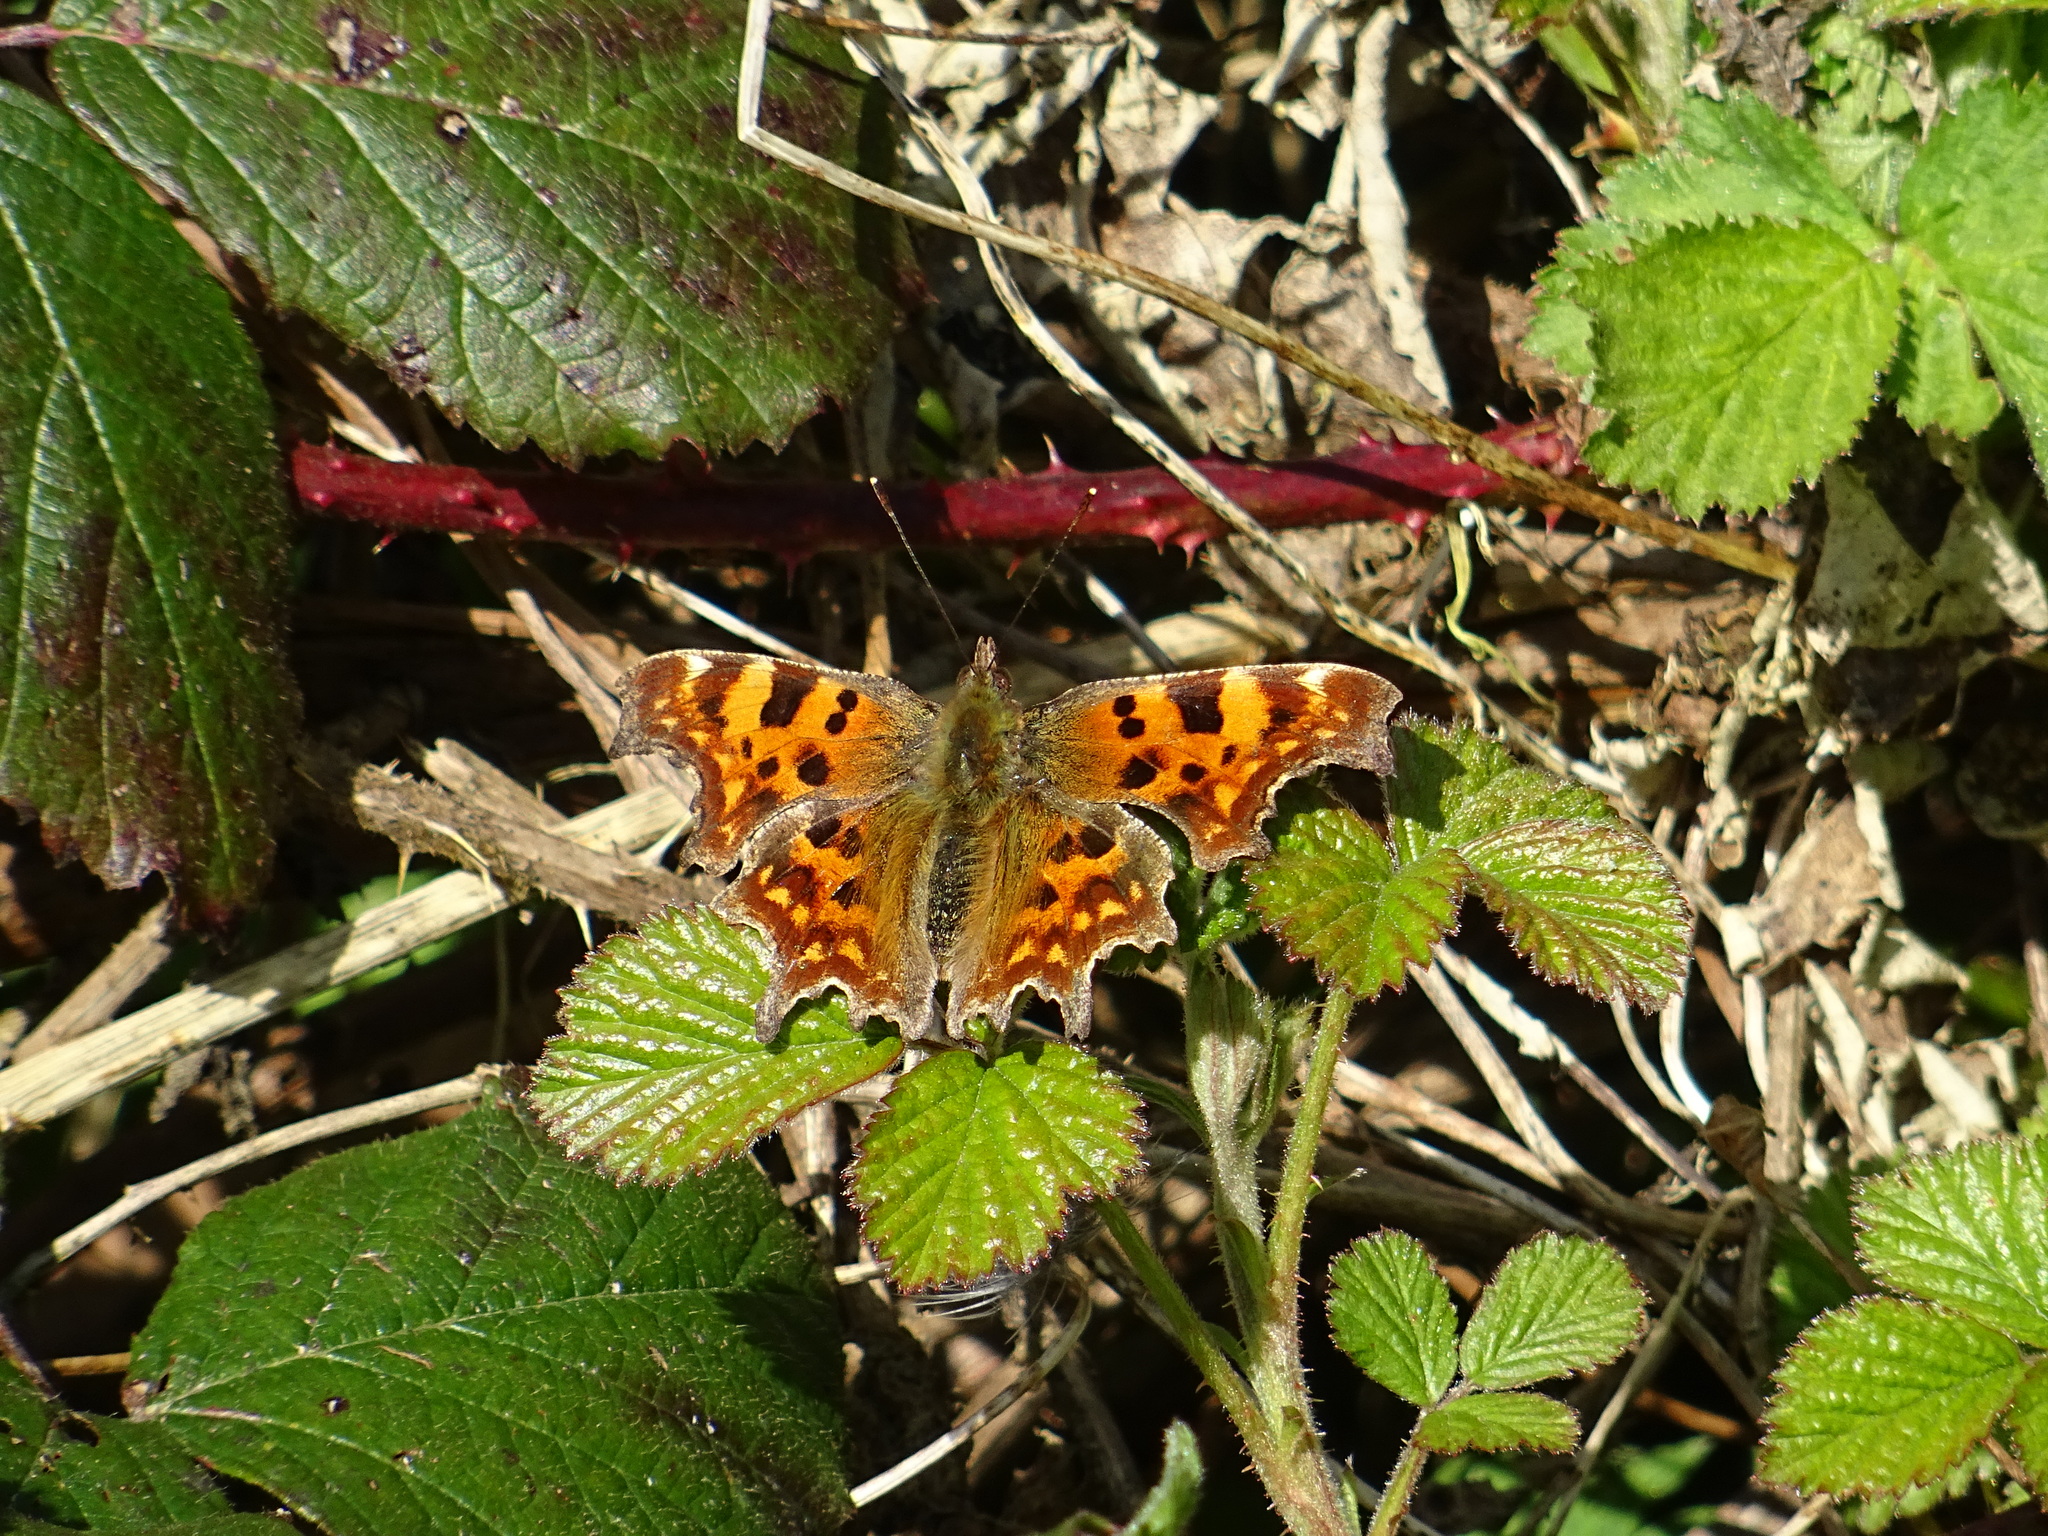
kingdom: Animalia
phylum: Arthropoda
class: Insecta
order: Lepidoptera
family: Nymphalidae
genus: Polygonia
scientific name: Polygonia c-album
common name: Comma
